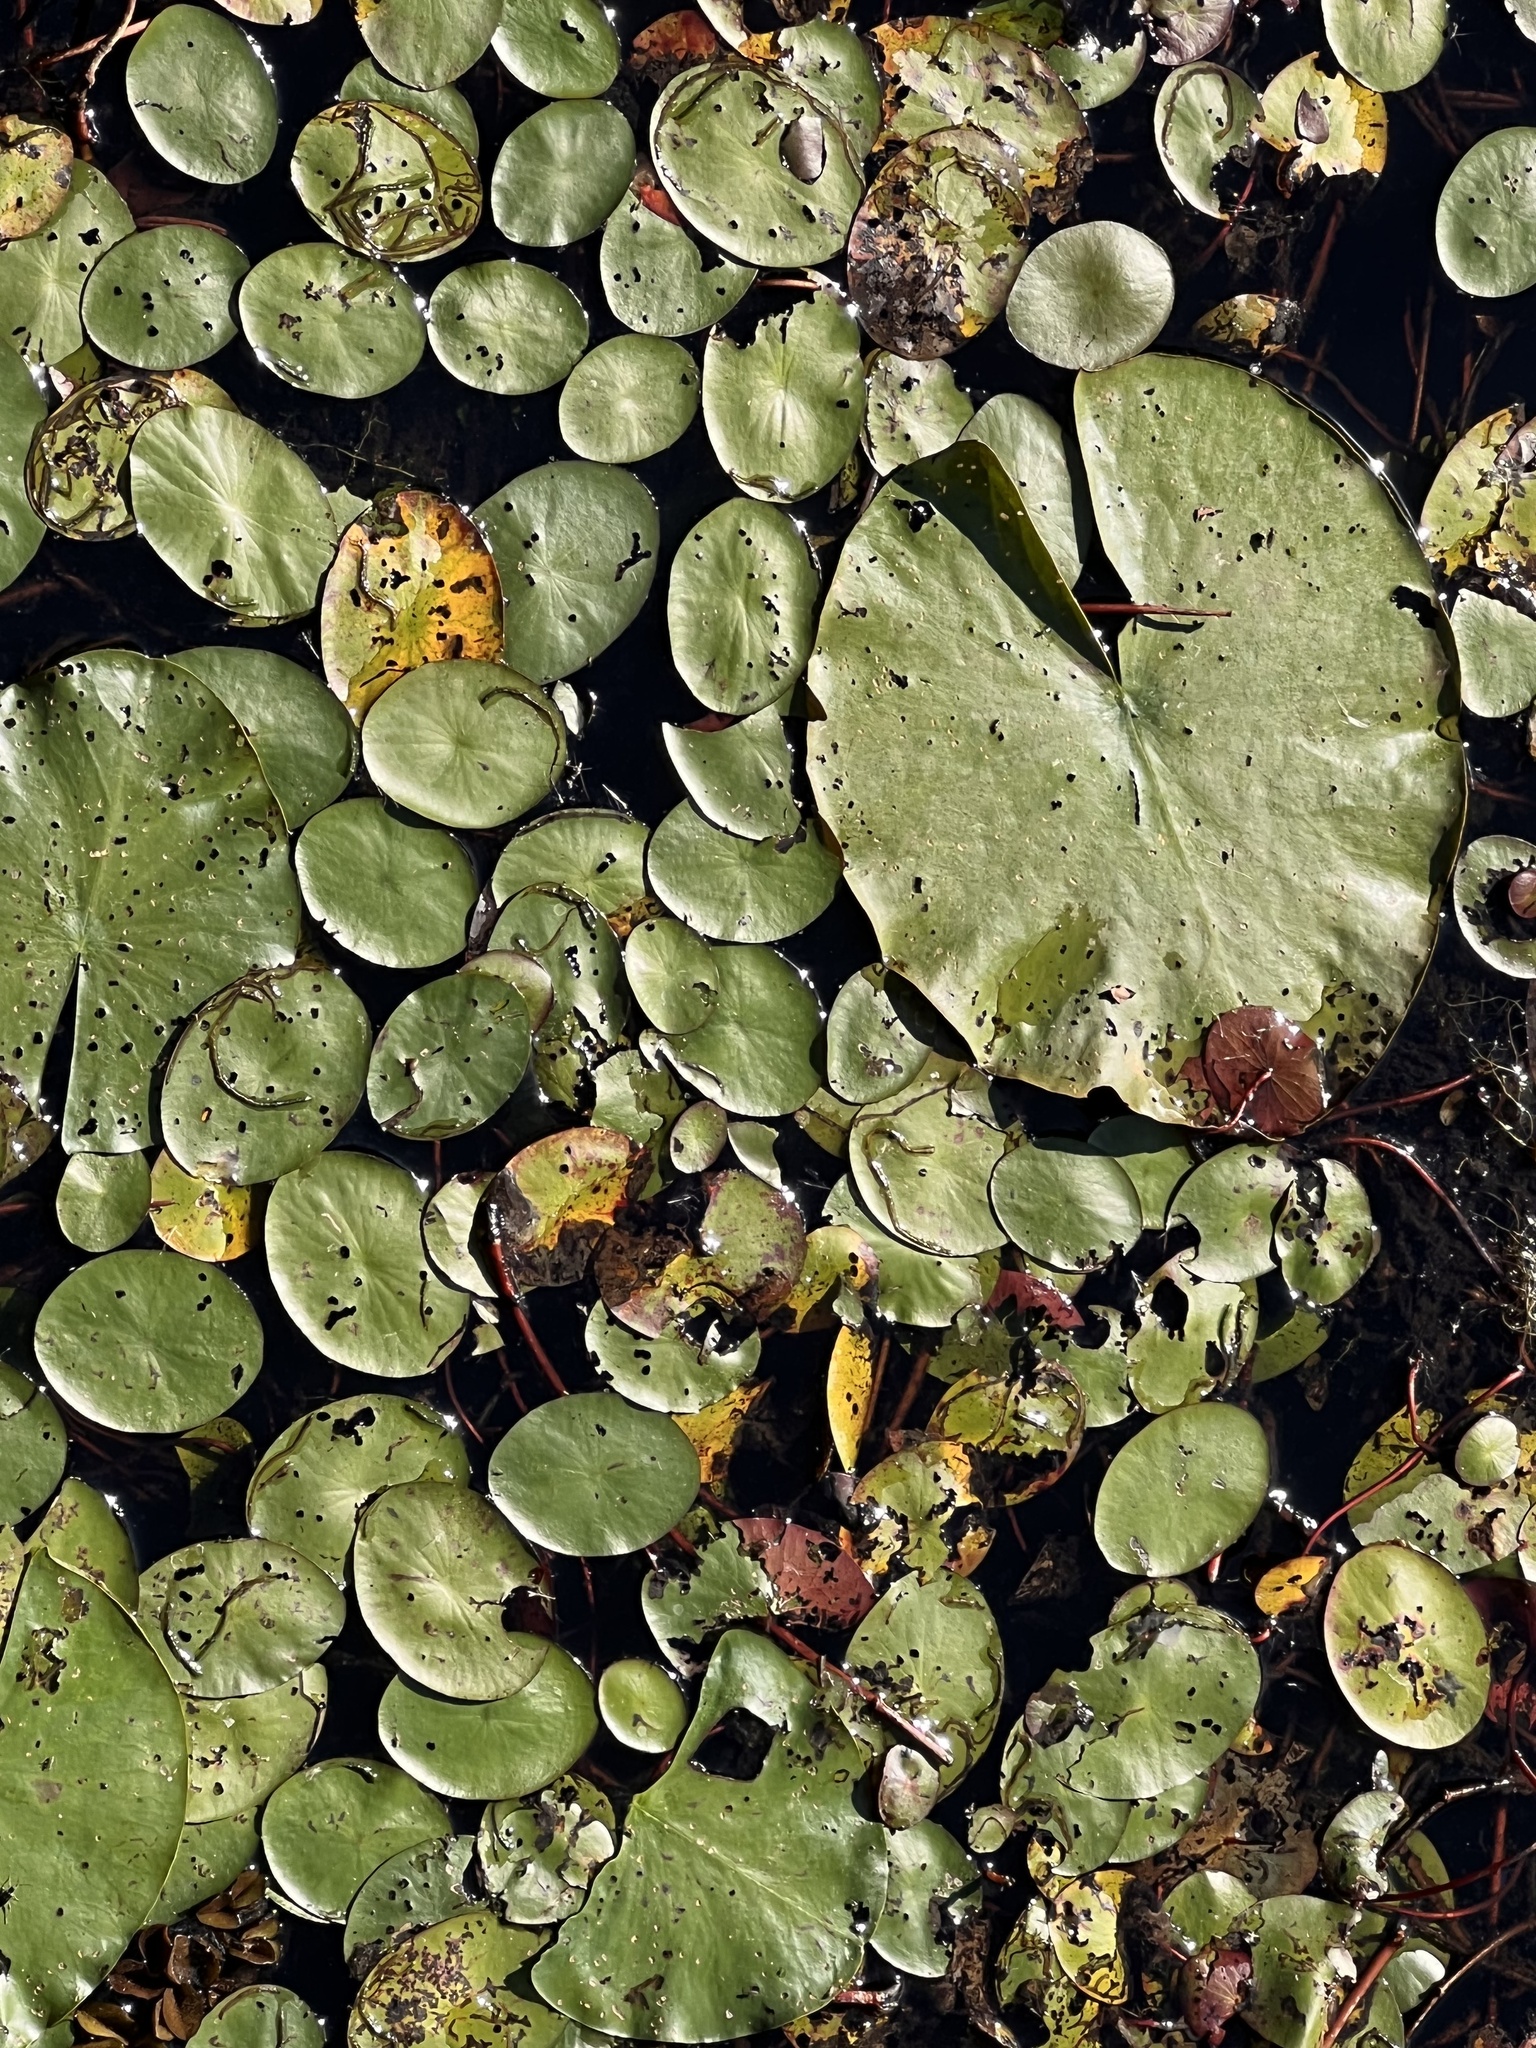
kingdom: Plantae
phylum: Tracheophyta
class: Magnoliopsida
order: Nymphaeales
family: Nymphaeaceae
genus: Nymphaea
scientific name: Nymphaea odorata
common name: Fragrant water-lily
